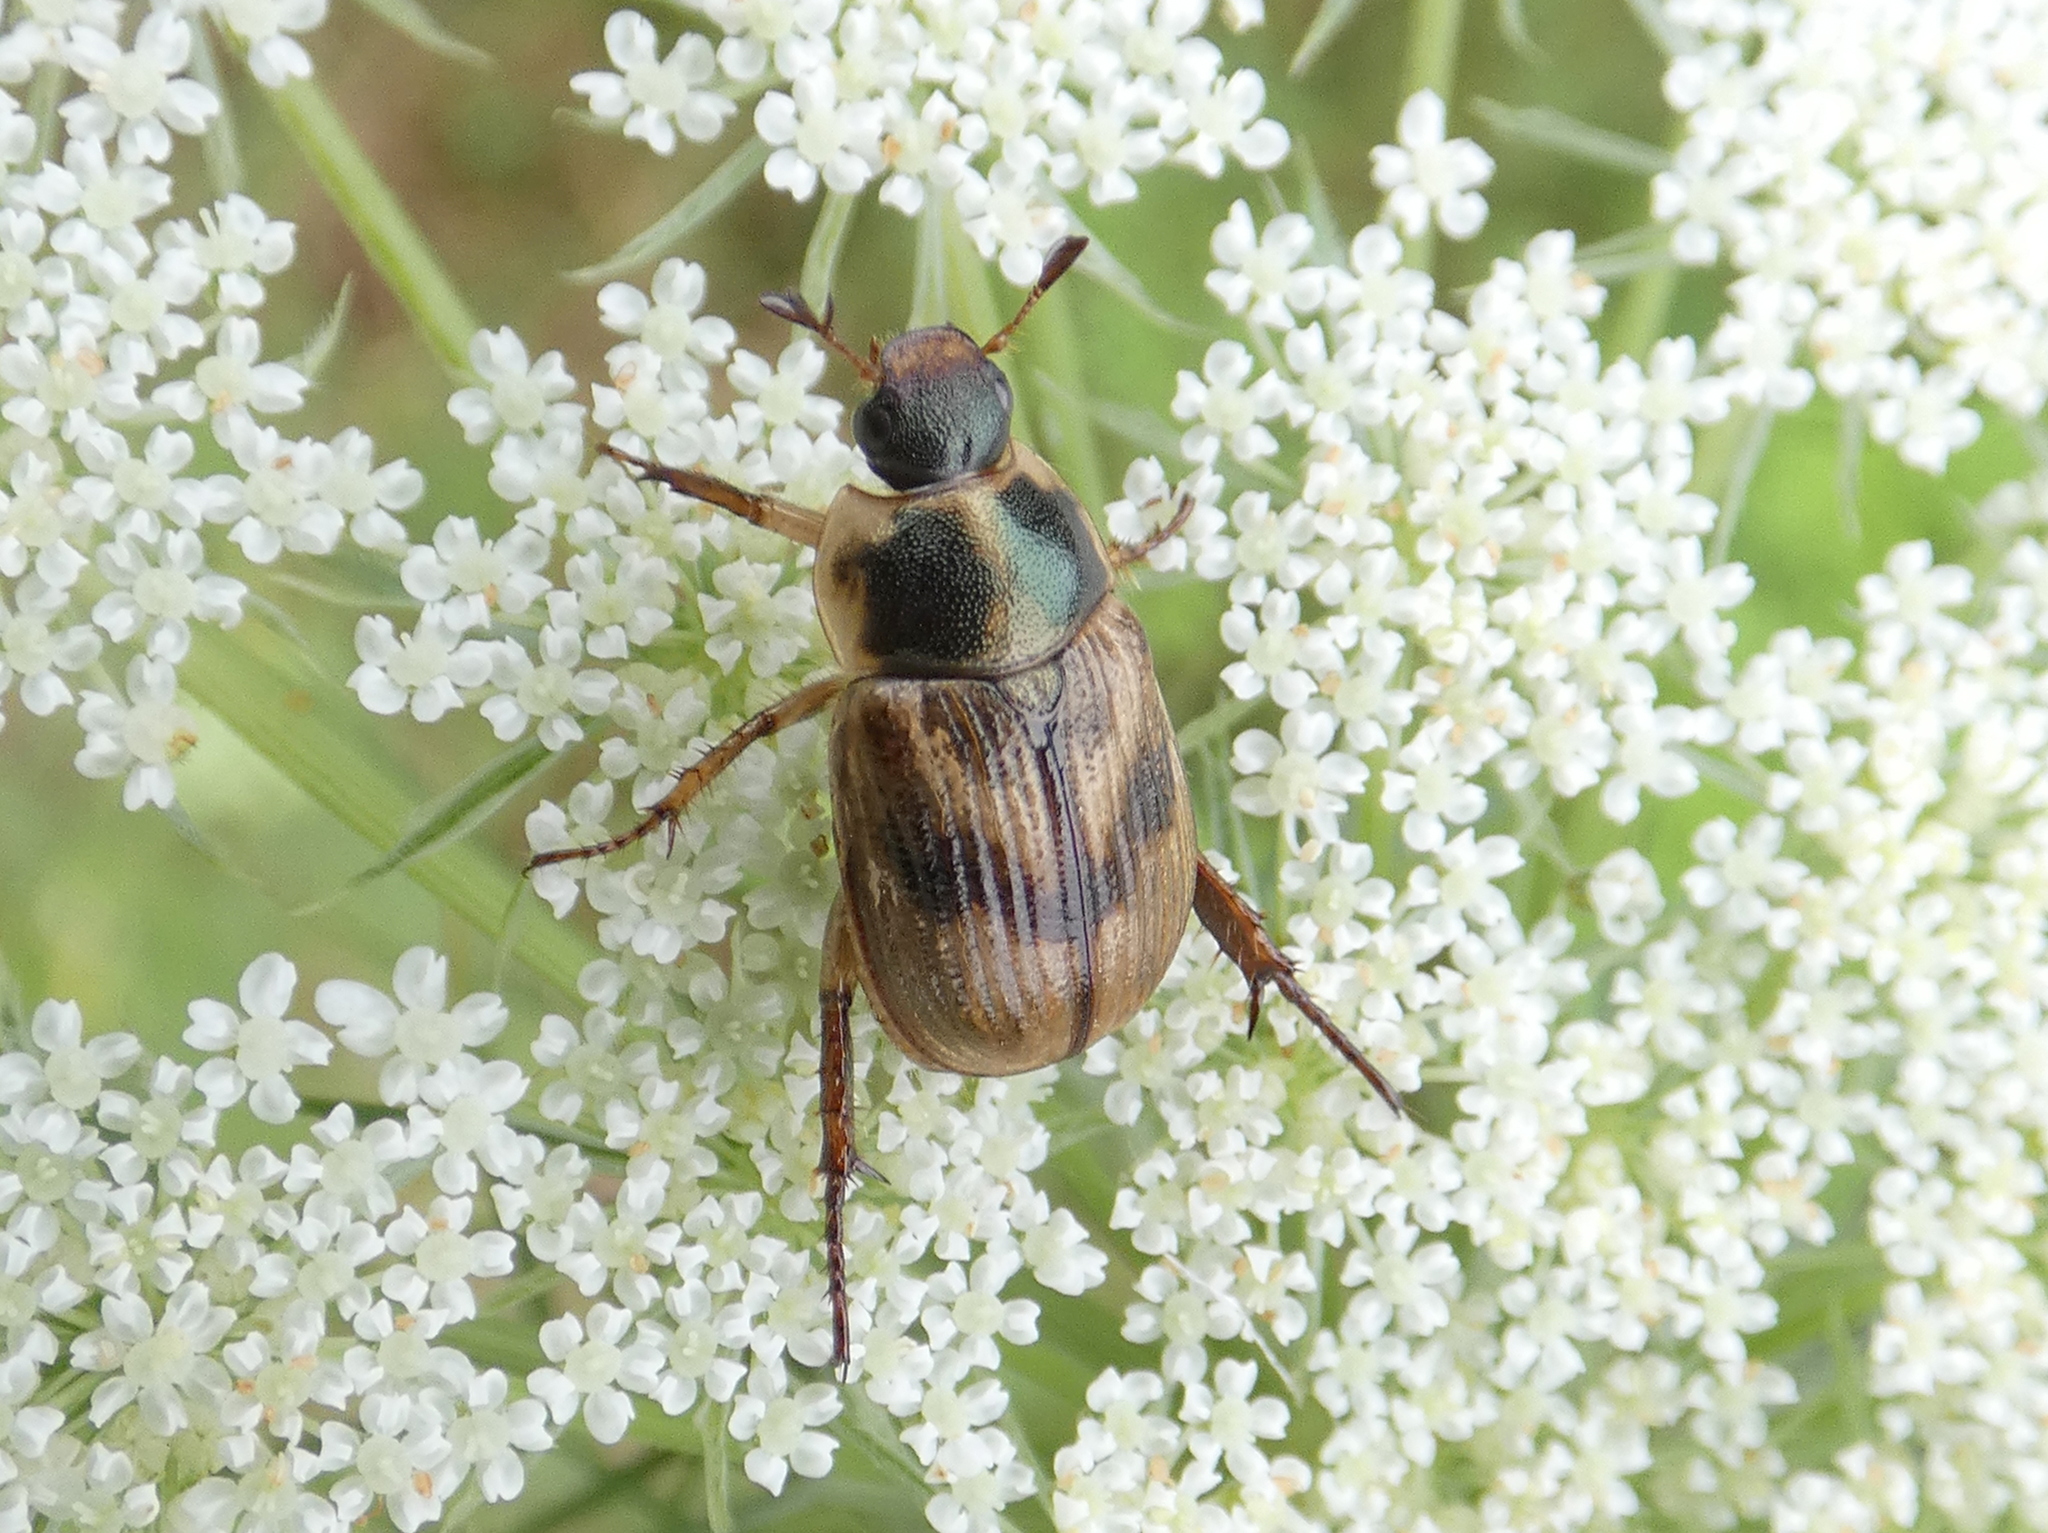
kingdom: Animalia
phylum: Arthropoda
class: Insecta
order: Coleoptera
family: Scarabaeidae
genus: Exomala
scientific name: Exomala orientalis
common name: Oriental beetle
